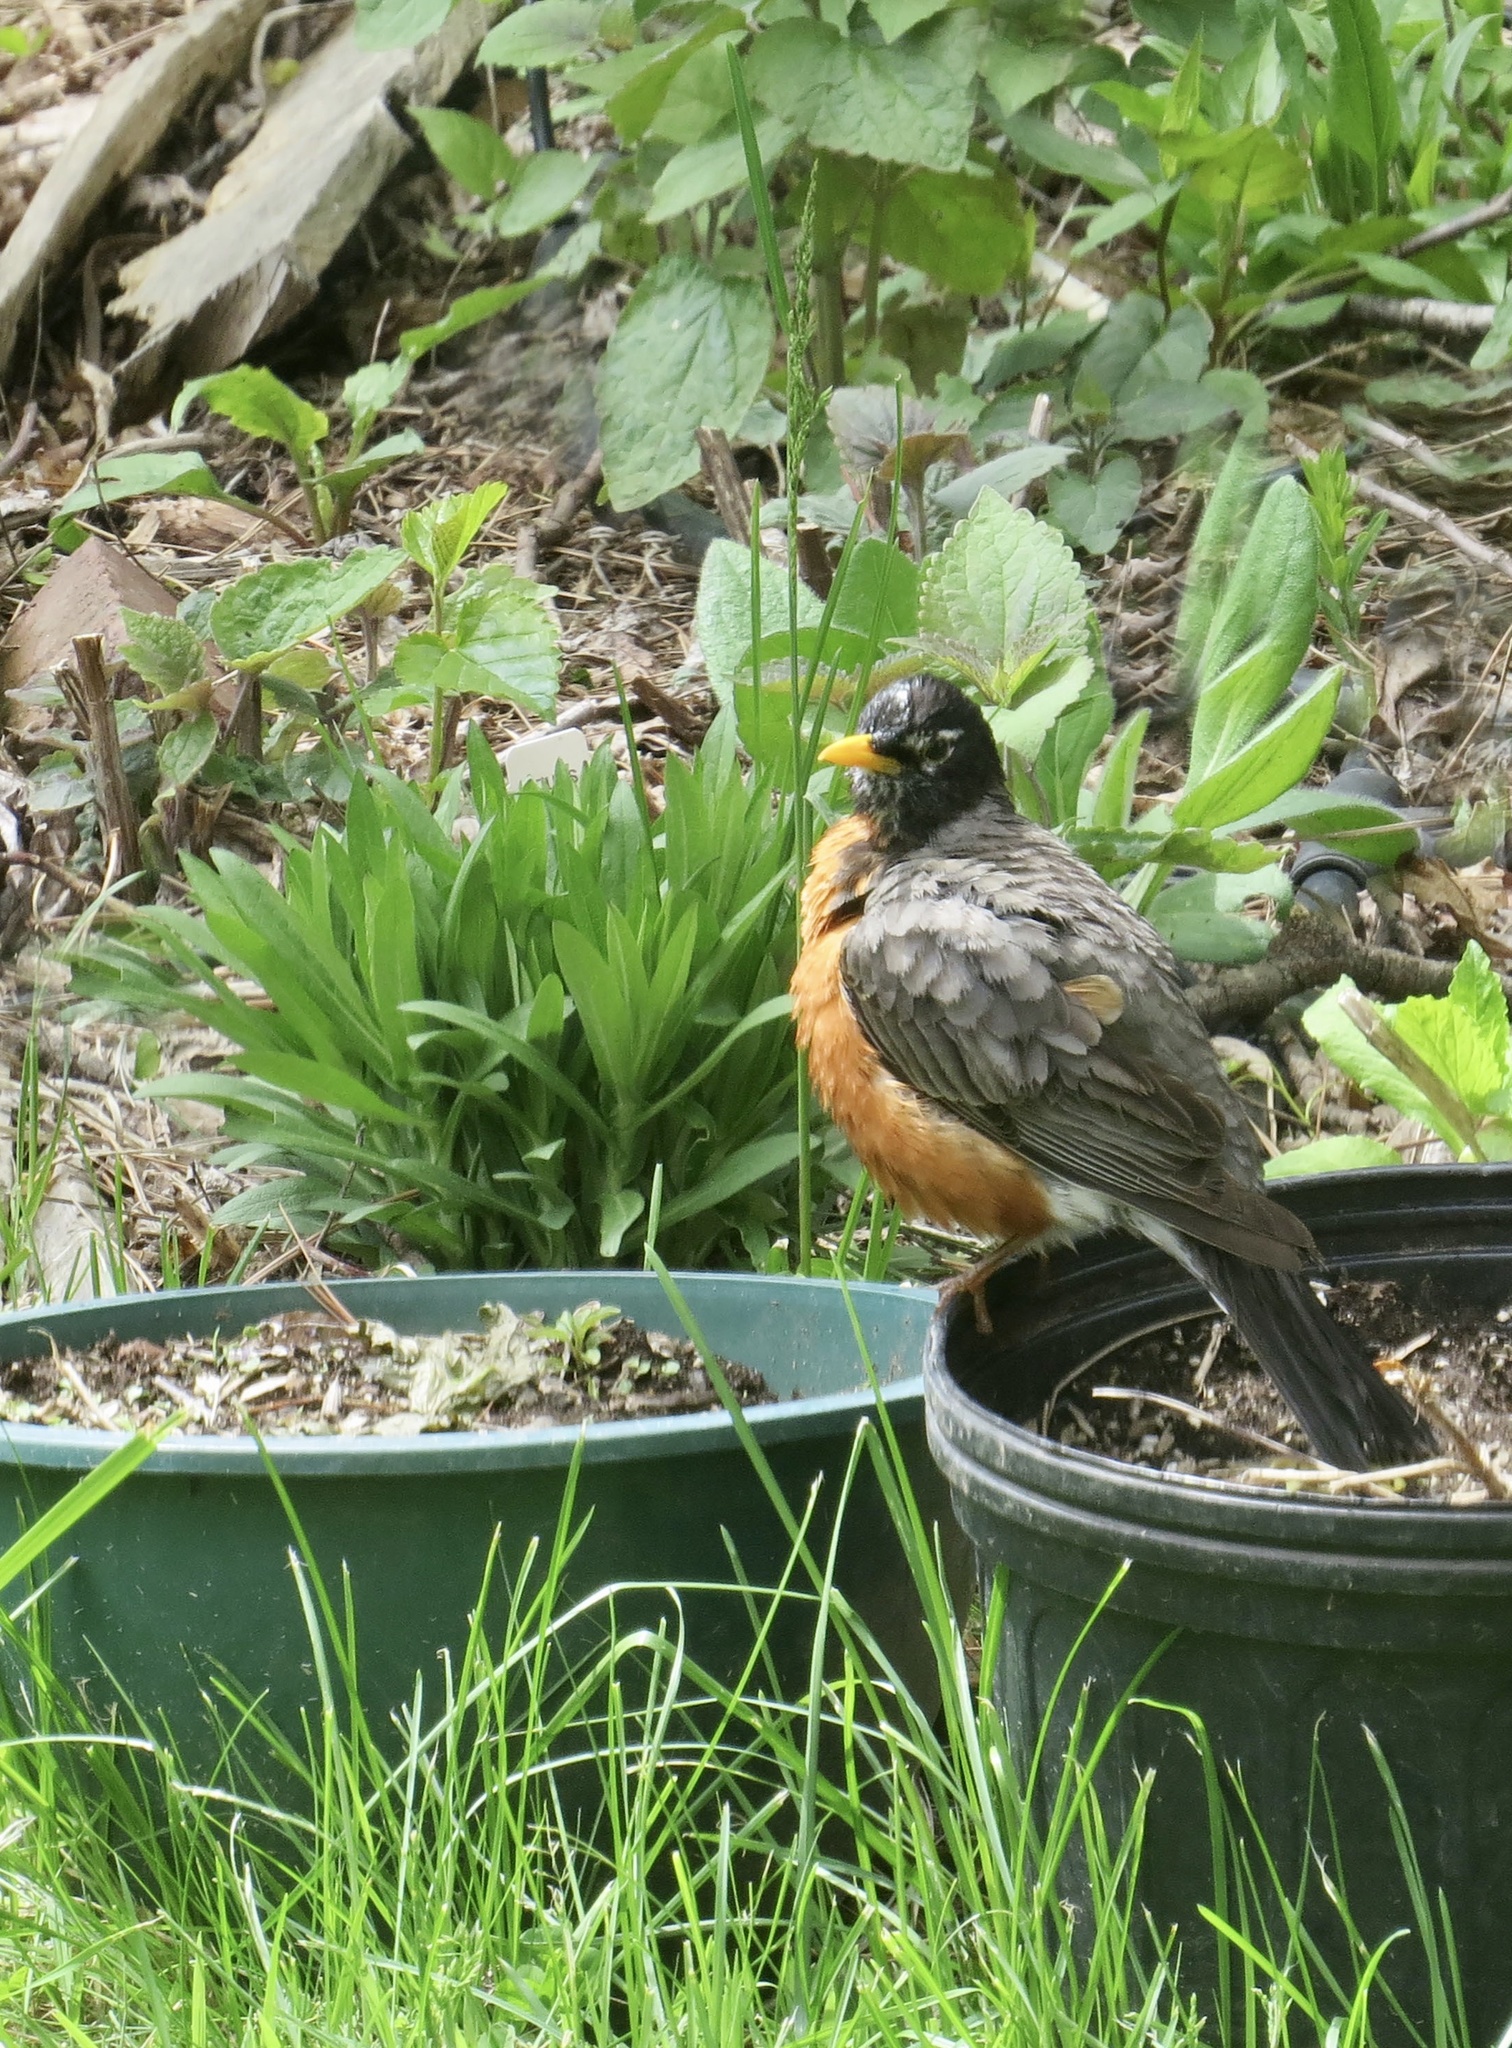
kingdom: Animalia
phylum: Chordata
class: Aves
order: Passeriformes
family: Turdidae
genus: Turdus
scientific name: Turdus migratorius
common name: American robin
